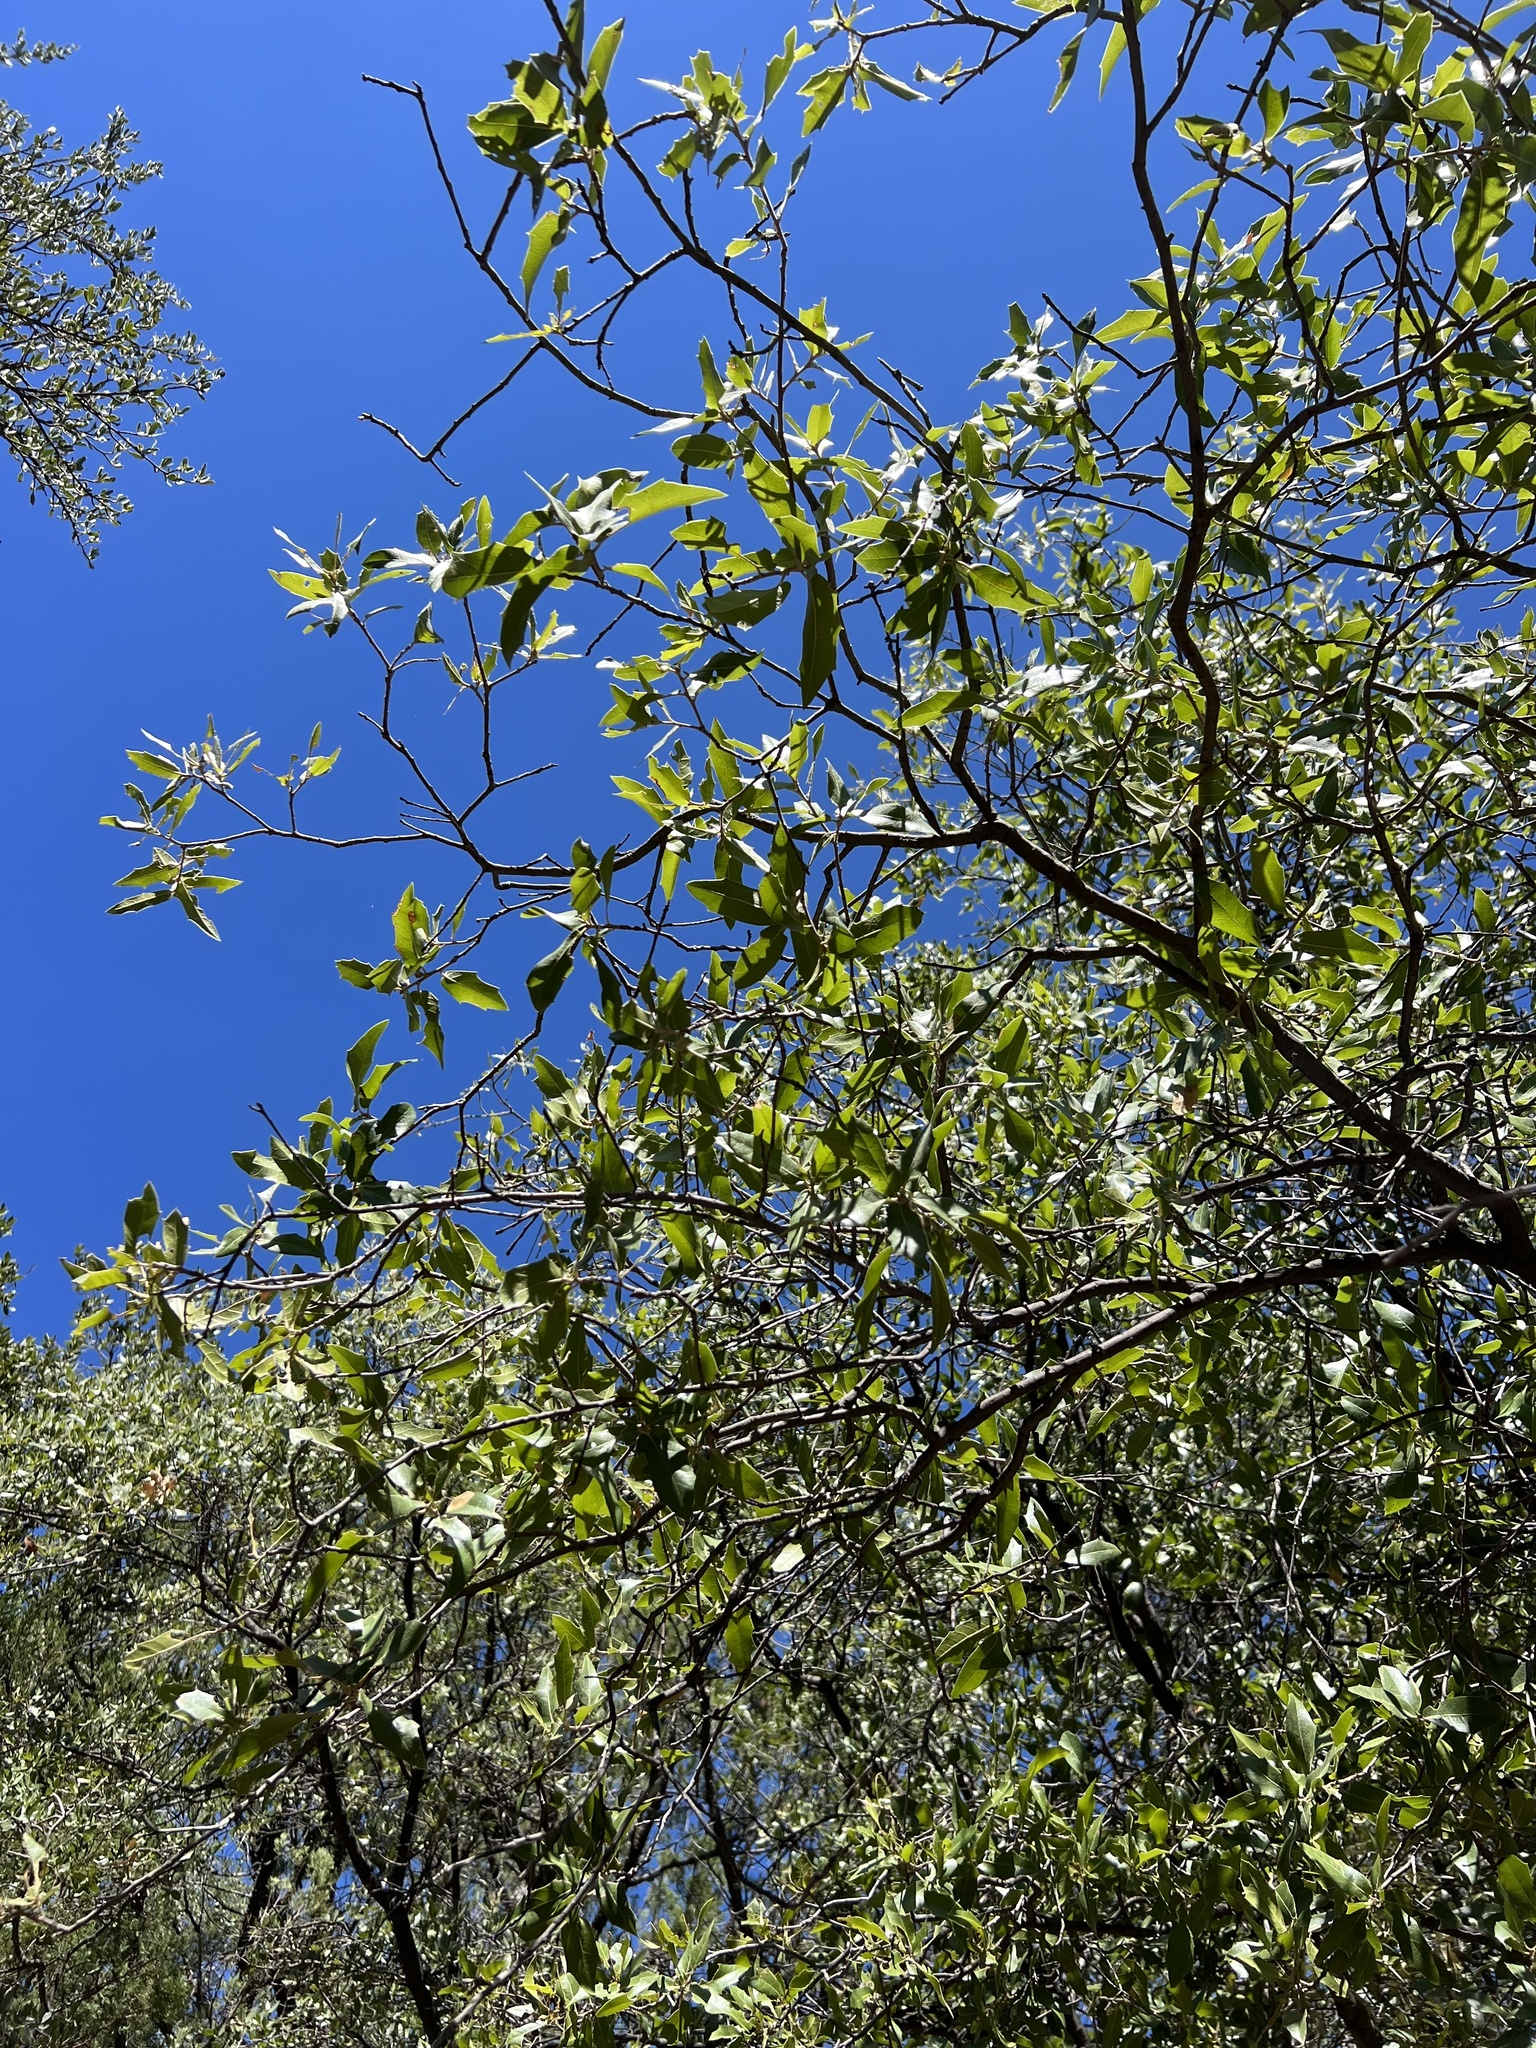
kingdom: Plantae
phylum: Tracheophyta
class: Magnoliopsida
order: Fagales
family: Fagaceae
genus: Quercus
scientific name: Quercus emoryi
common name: Emory oak
